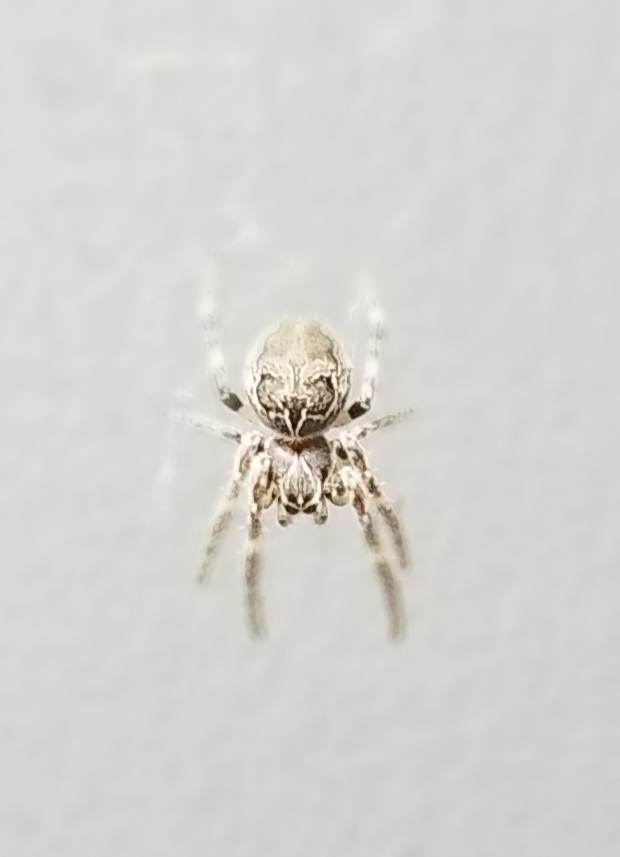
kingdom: Animalia
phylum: Arthropoda
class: Arachnida
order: Araneae
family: Araneidae
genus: Larinioides
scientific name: Larinioides sclopetarius
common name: Bridge orbweaver
